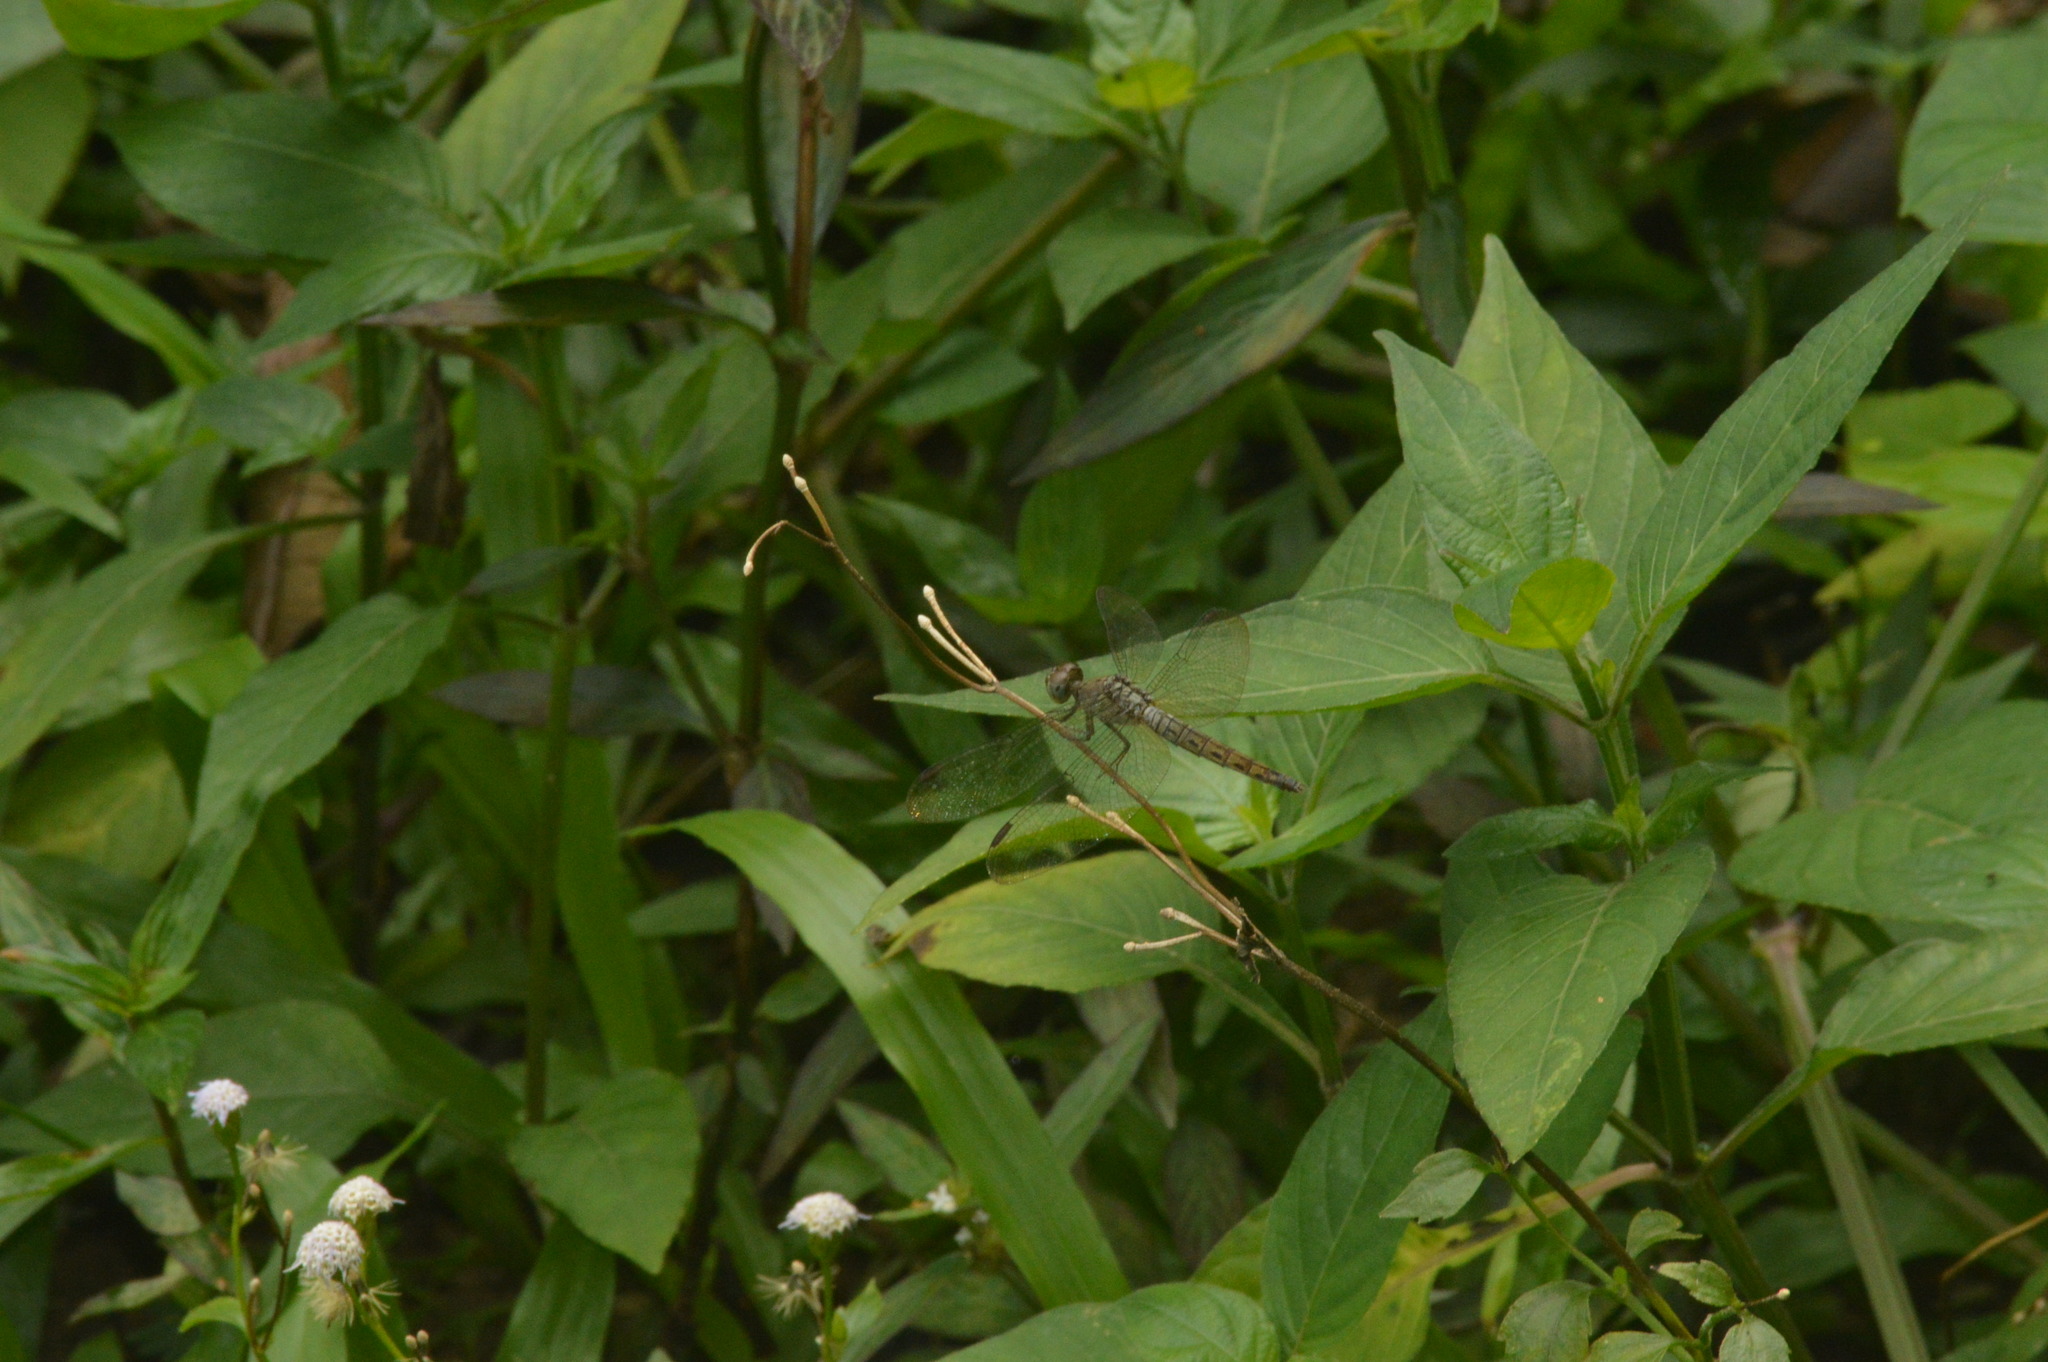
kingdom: Animalia
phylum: Arthropoda
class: Insecta
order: Odonata
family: Libellulidae
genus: Neurothemis
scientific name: Neurothemis fluctuans
